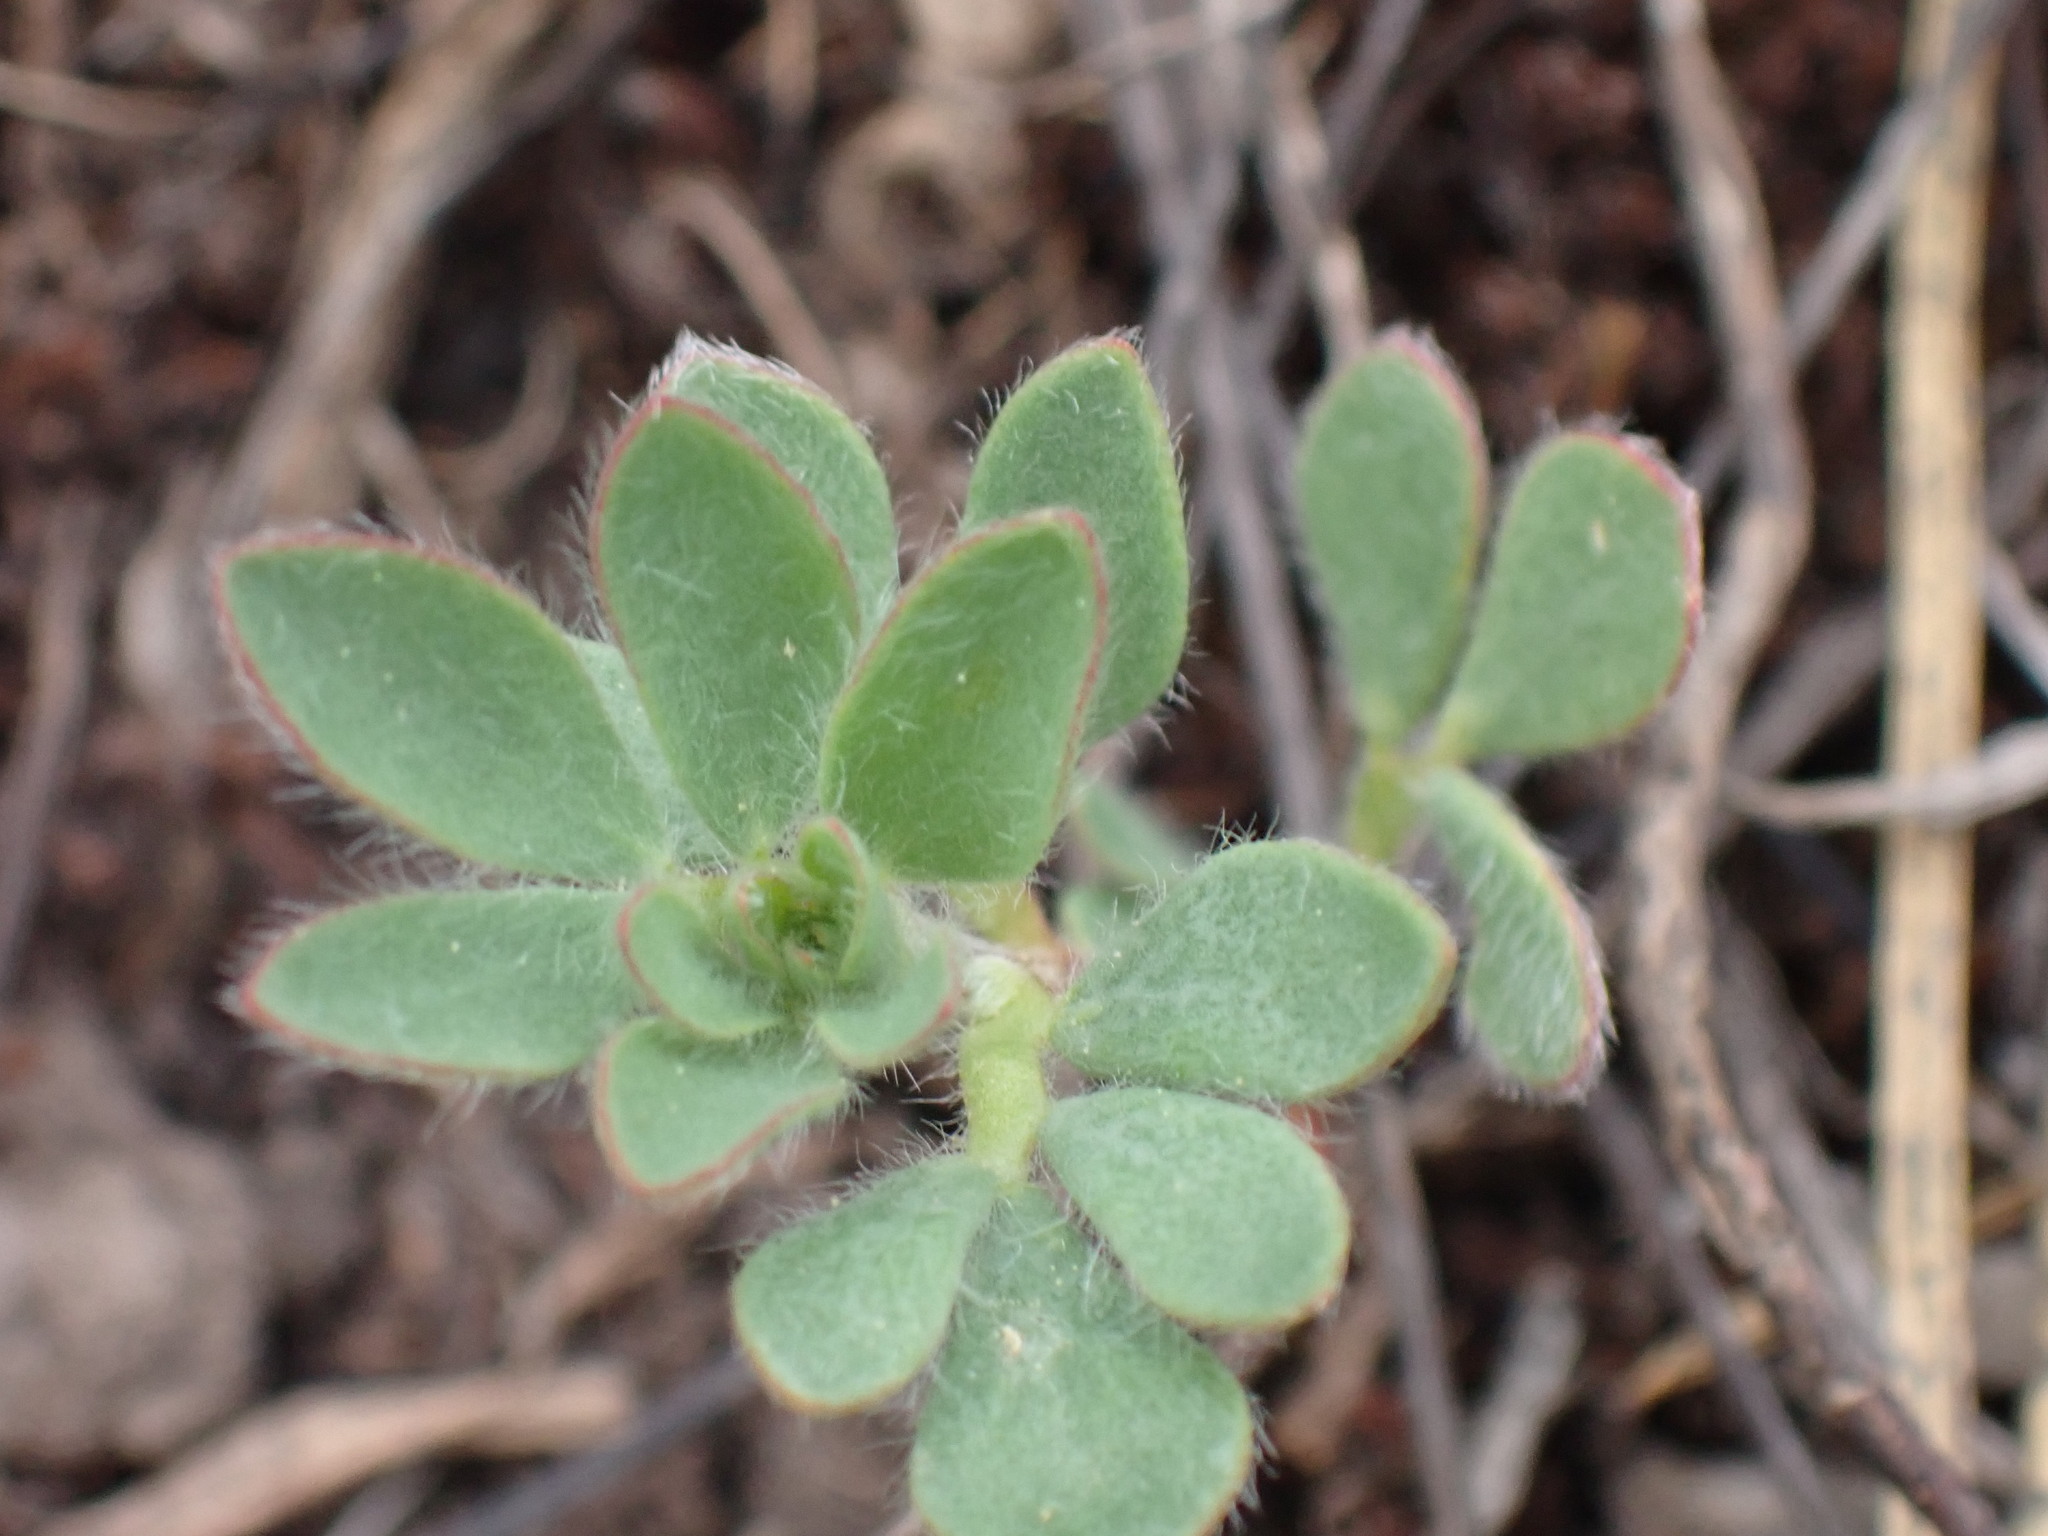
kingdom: Plantae
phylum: Tracheophyta
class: Magnoliopsida
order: Fabales
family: Fabaceae
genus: Acmispon
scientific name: Acmispon denticulatus
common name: Meadow bird's-foot trefoil
